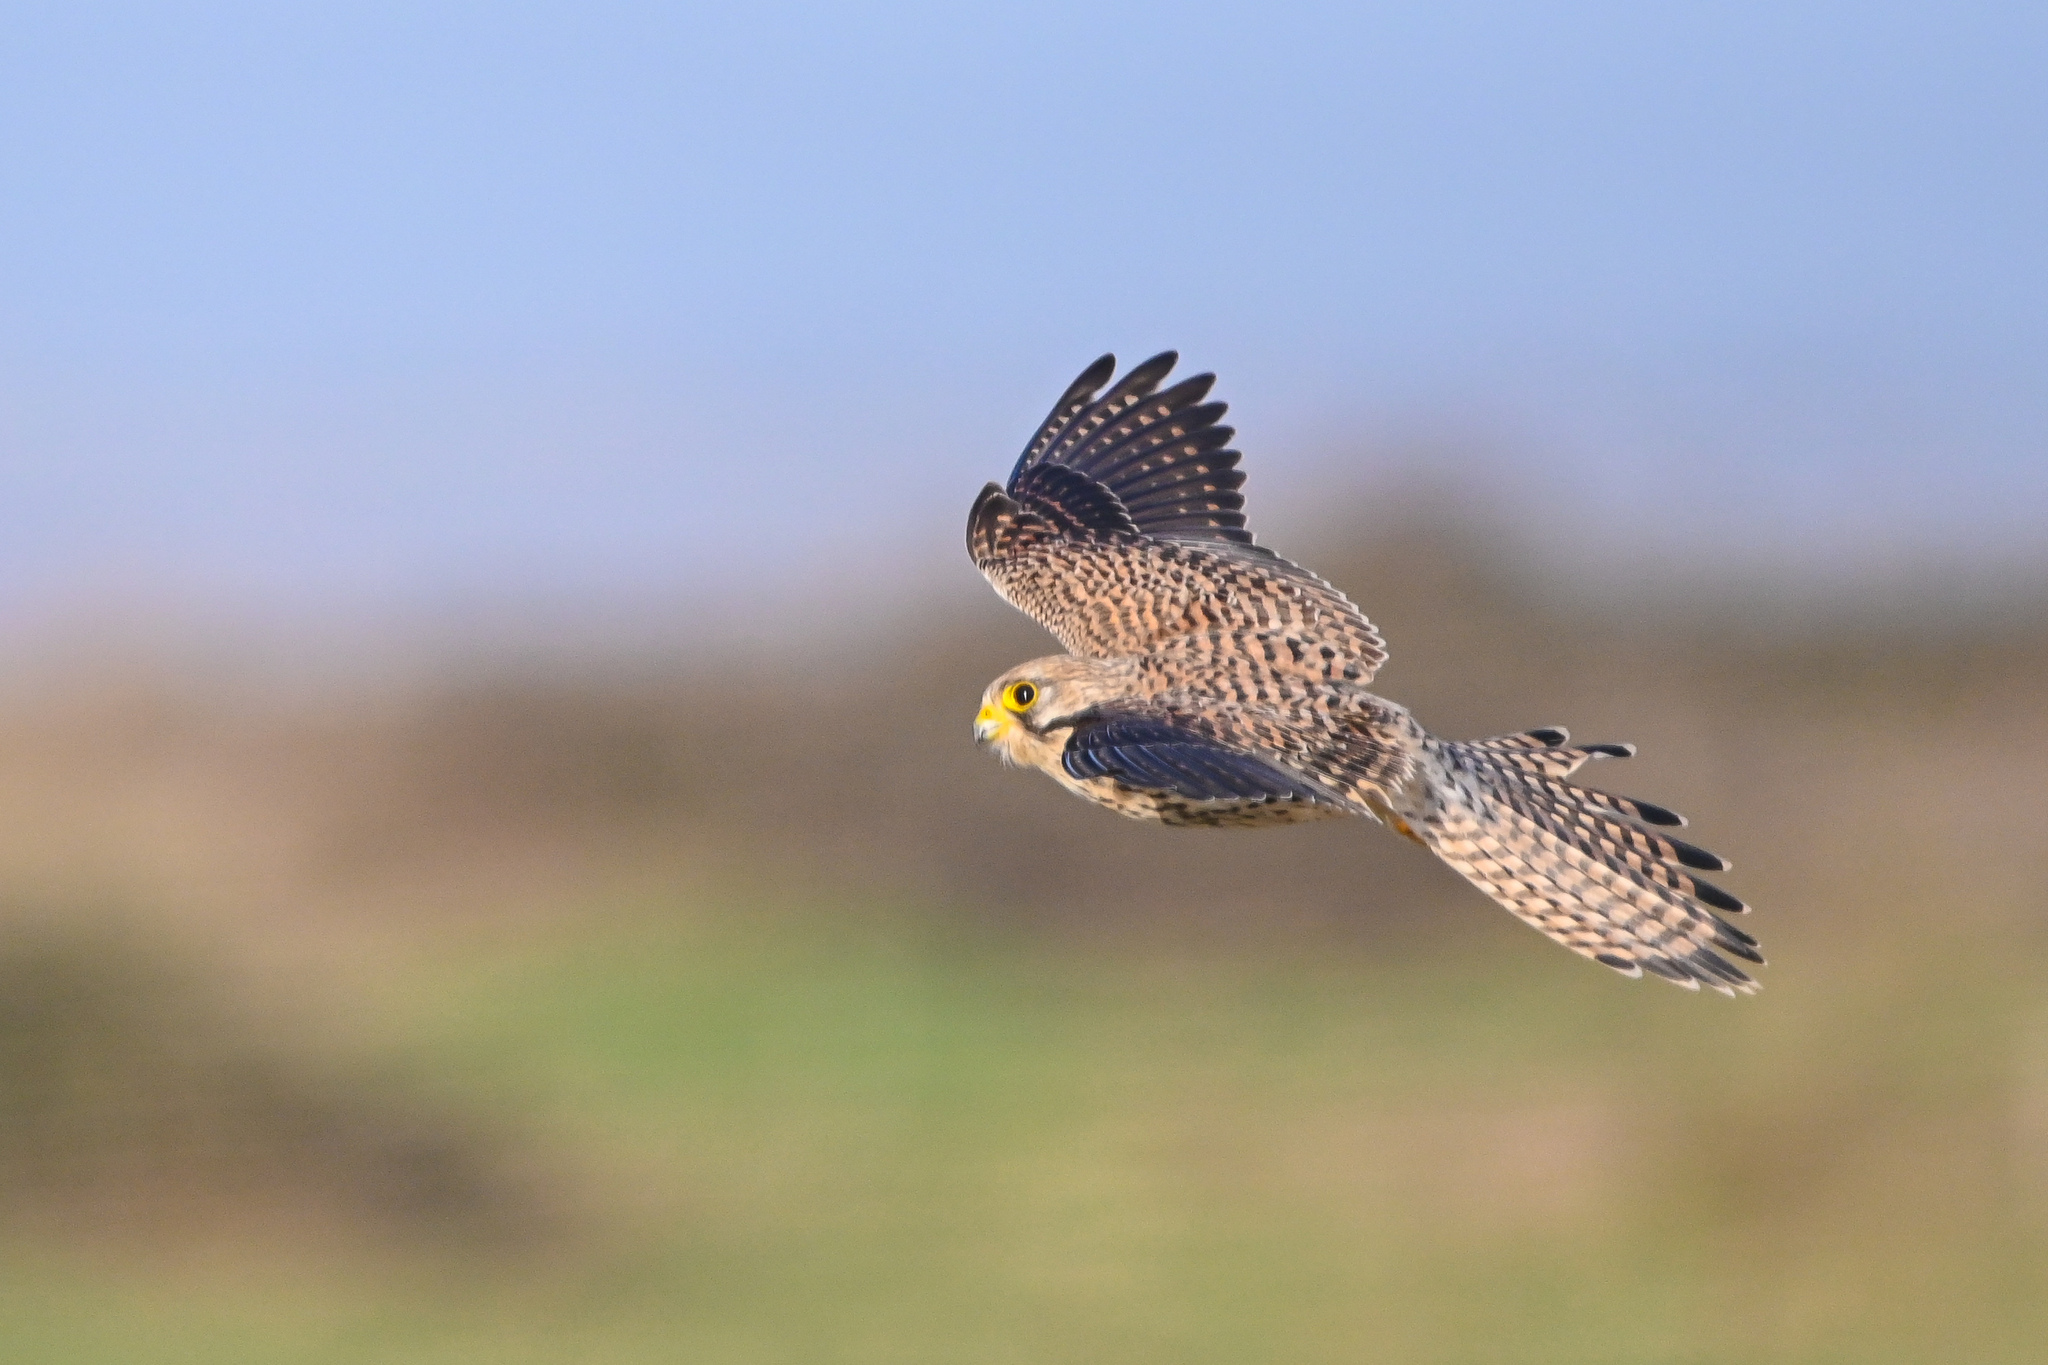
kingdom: Animalia
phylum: Chordata
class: Aves
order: Falconiformes
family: Falconidae
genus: Falco
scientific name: Falco tinnunculus
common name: Common kestrel
